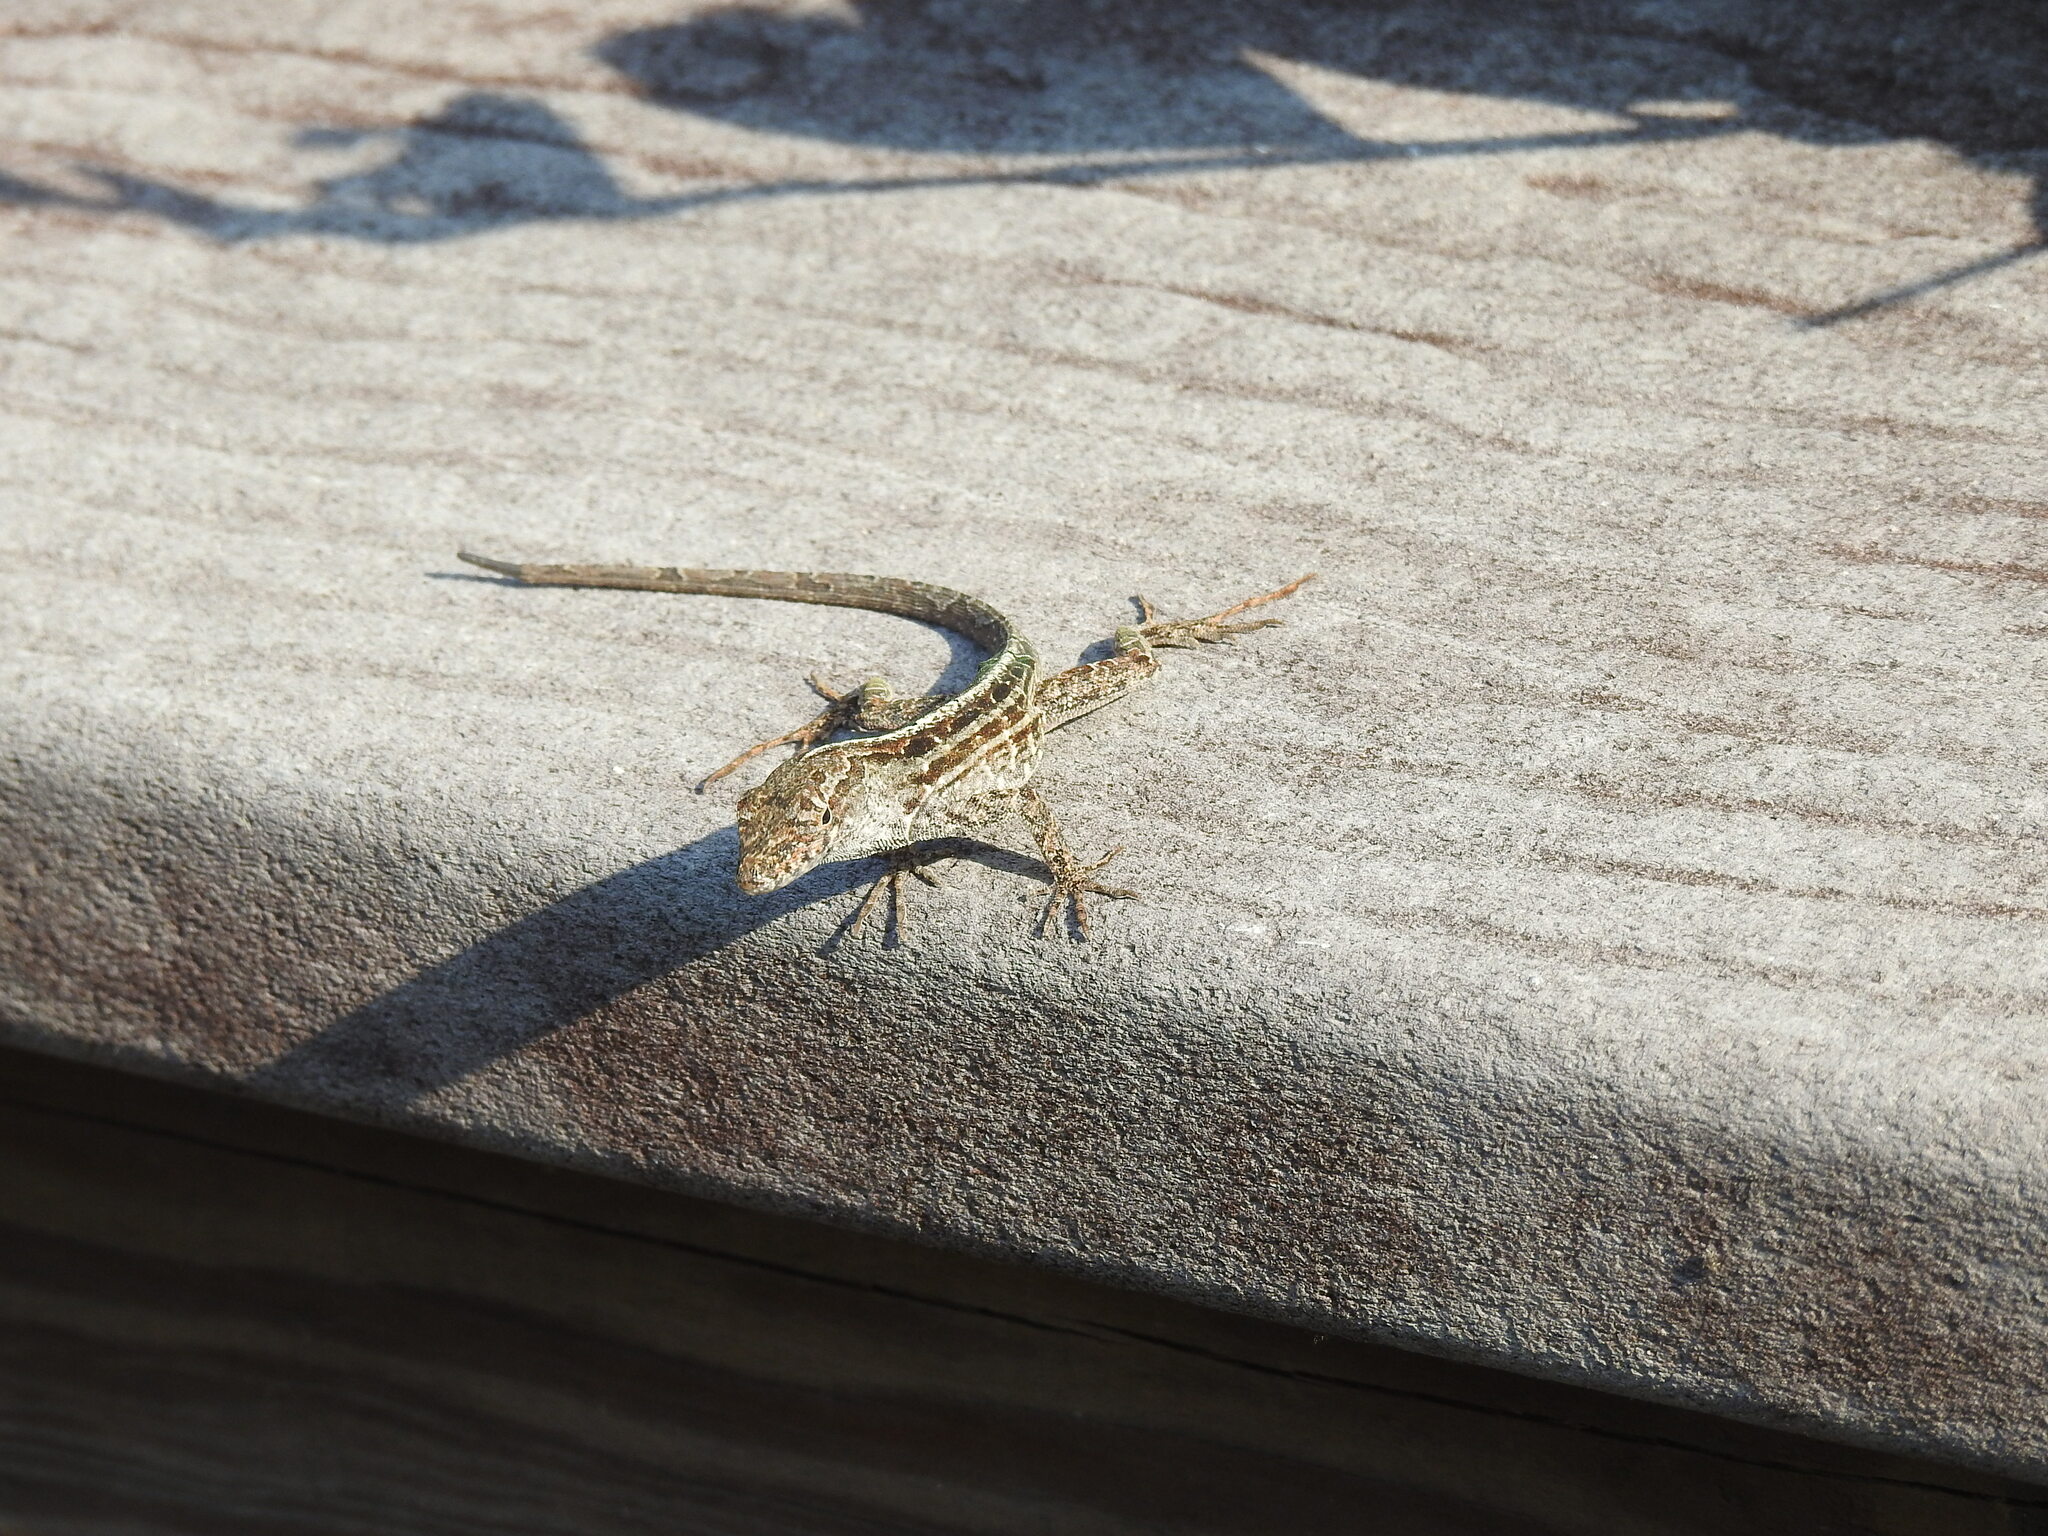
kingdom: Animalia
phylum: Chordata
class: Squamata
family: Dactyloidae
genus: Anolis
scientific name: Anolis sagrei
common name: Brown anole
